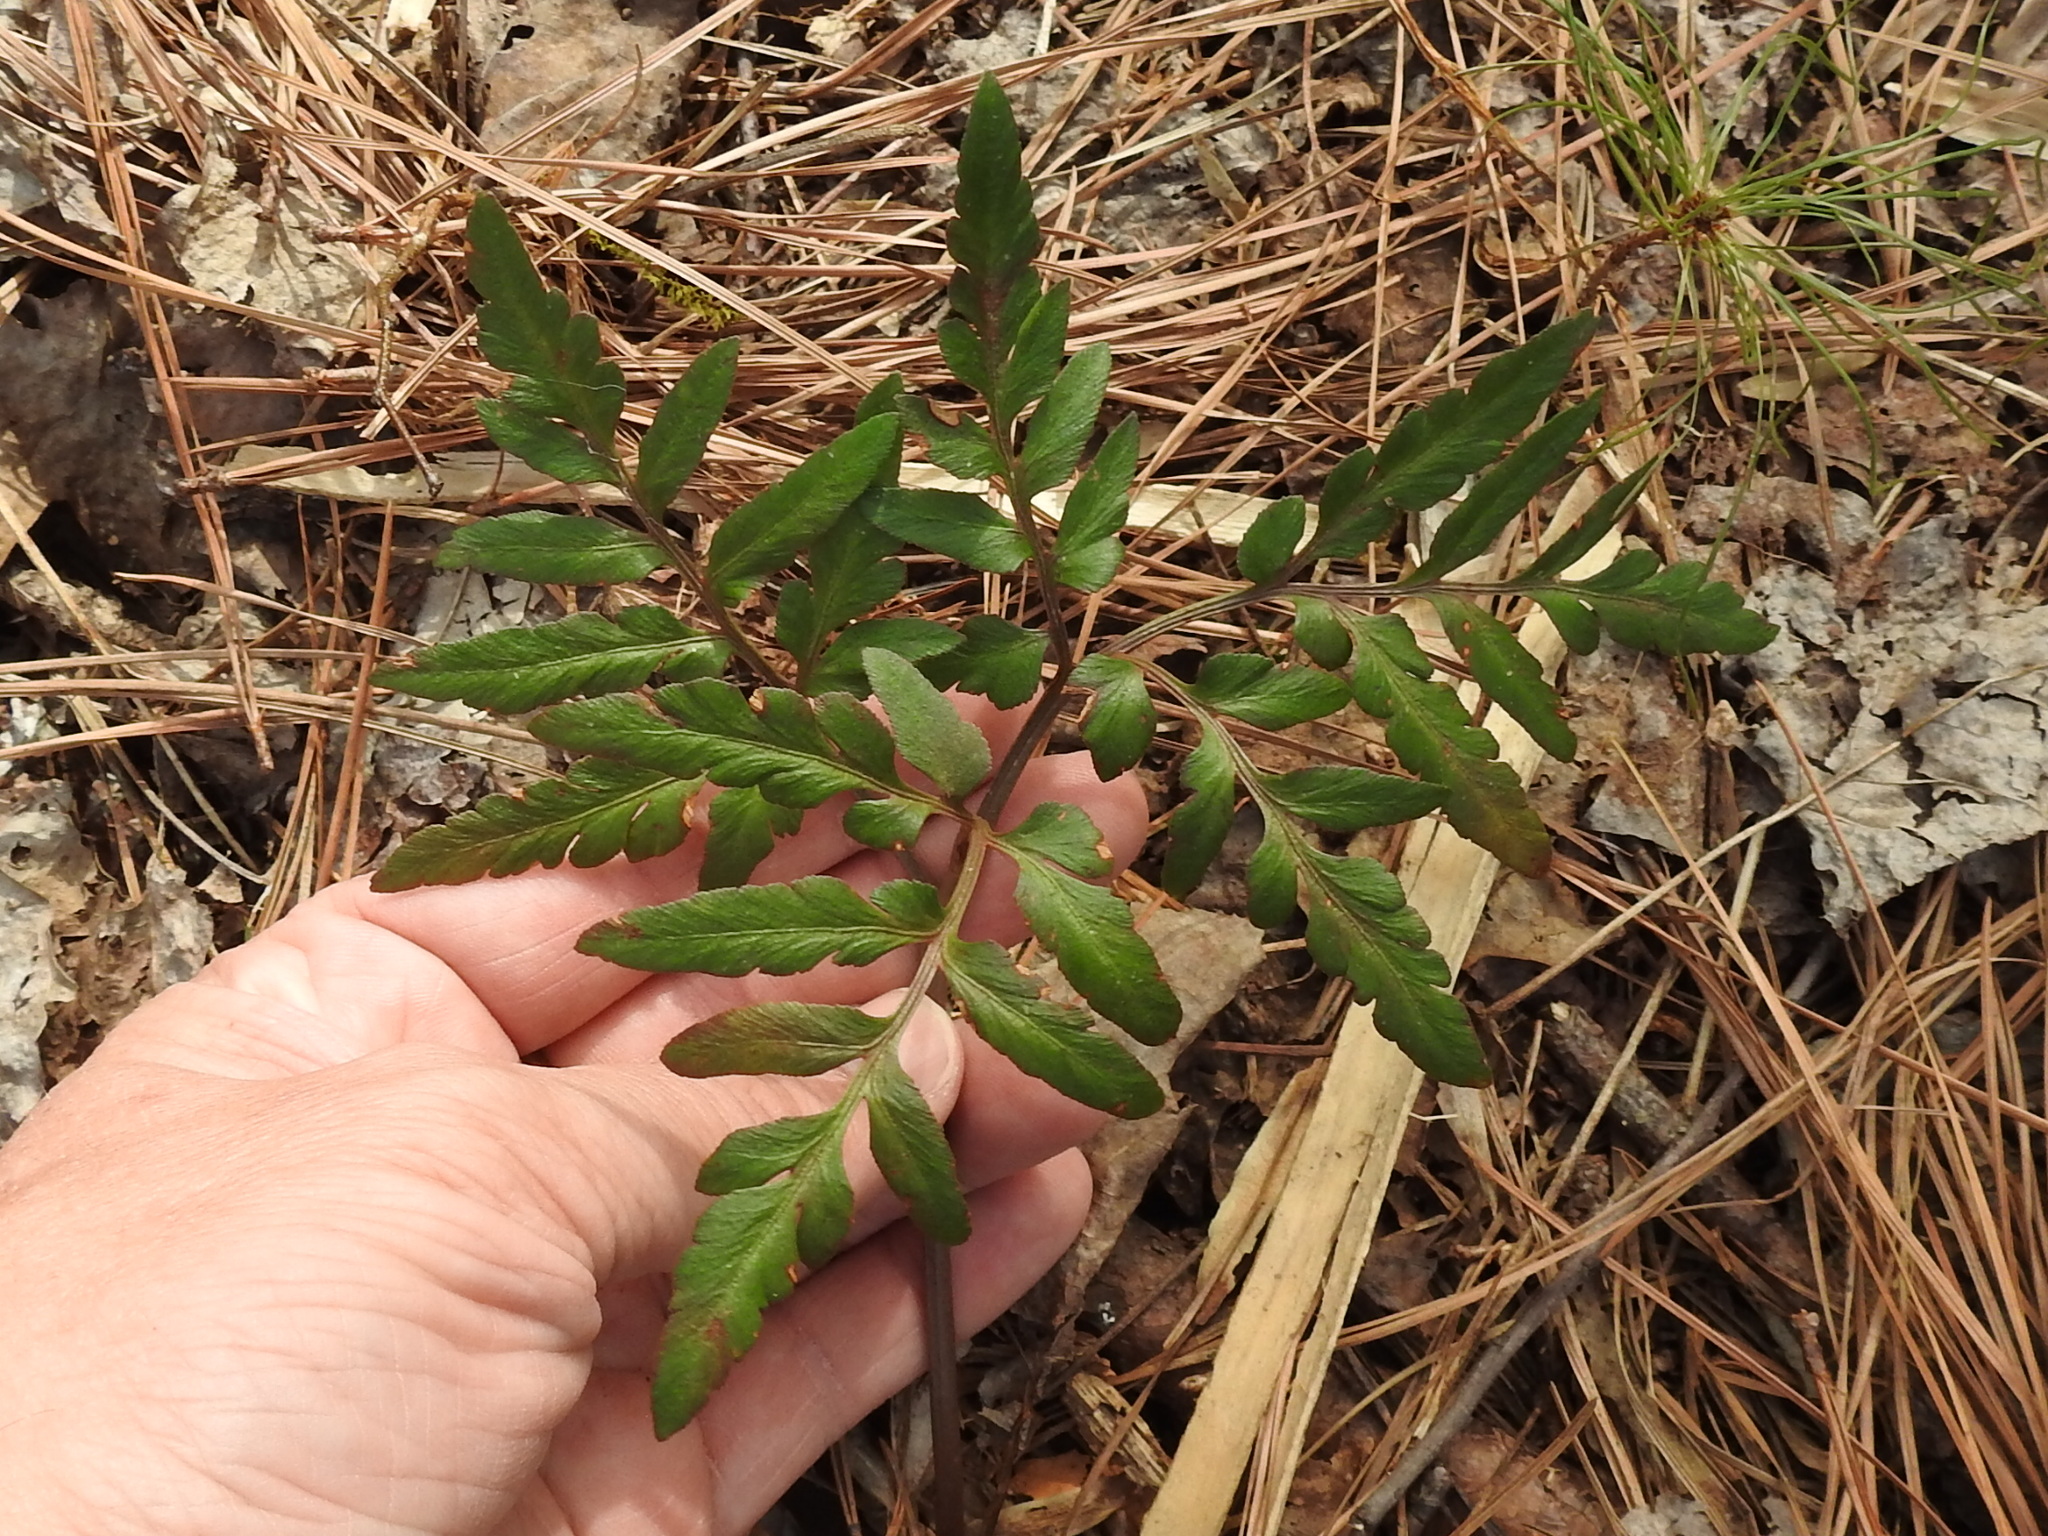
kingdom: Plantae
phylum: Tracheophyta
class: Polypodiopsida
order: Ophioglossales
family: Ophioglossaceae
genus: Sceptridium
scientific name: Sceptridium biternatum
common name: Sparse-lobed grapefern
